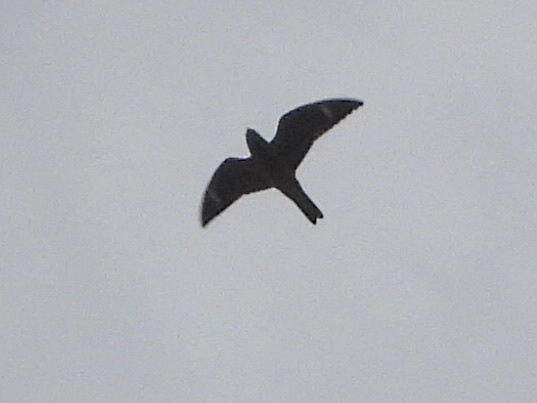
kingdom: Animalia
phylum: Chordata
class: Aves
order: Caprimulgiformes
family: Caprimulgidae
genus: Chordeiles
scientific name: Chordeiles minor
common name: Common nighthawk
